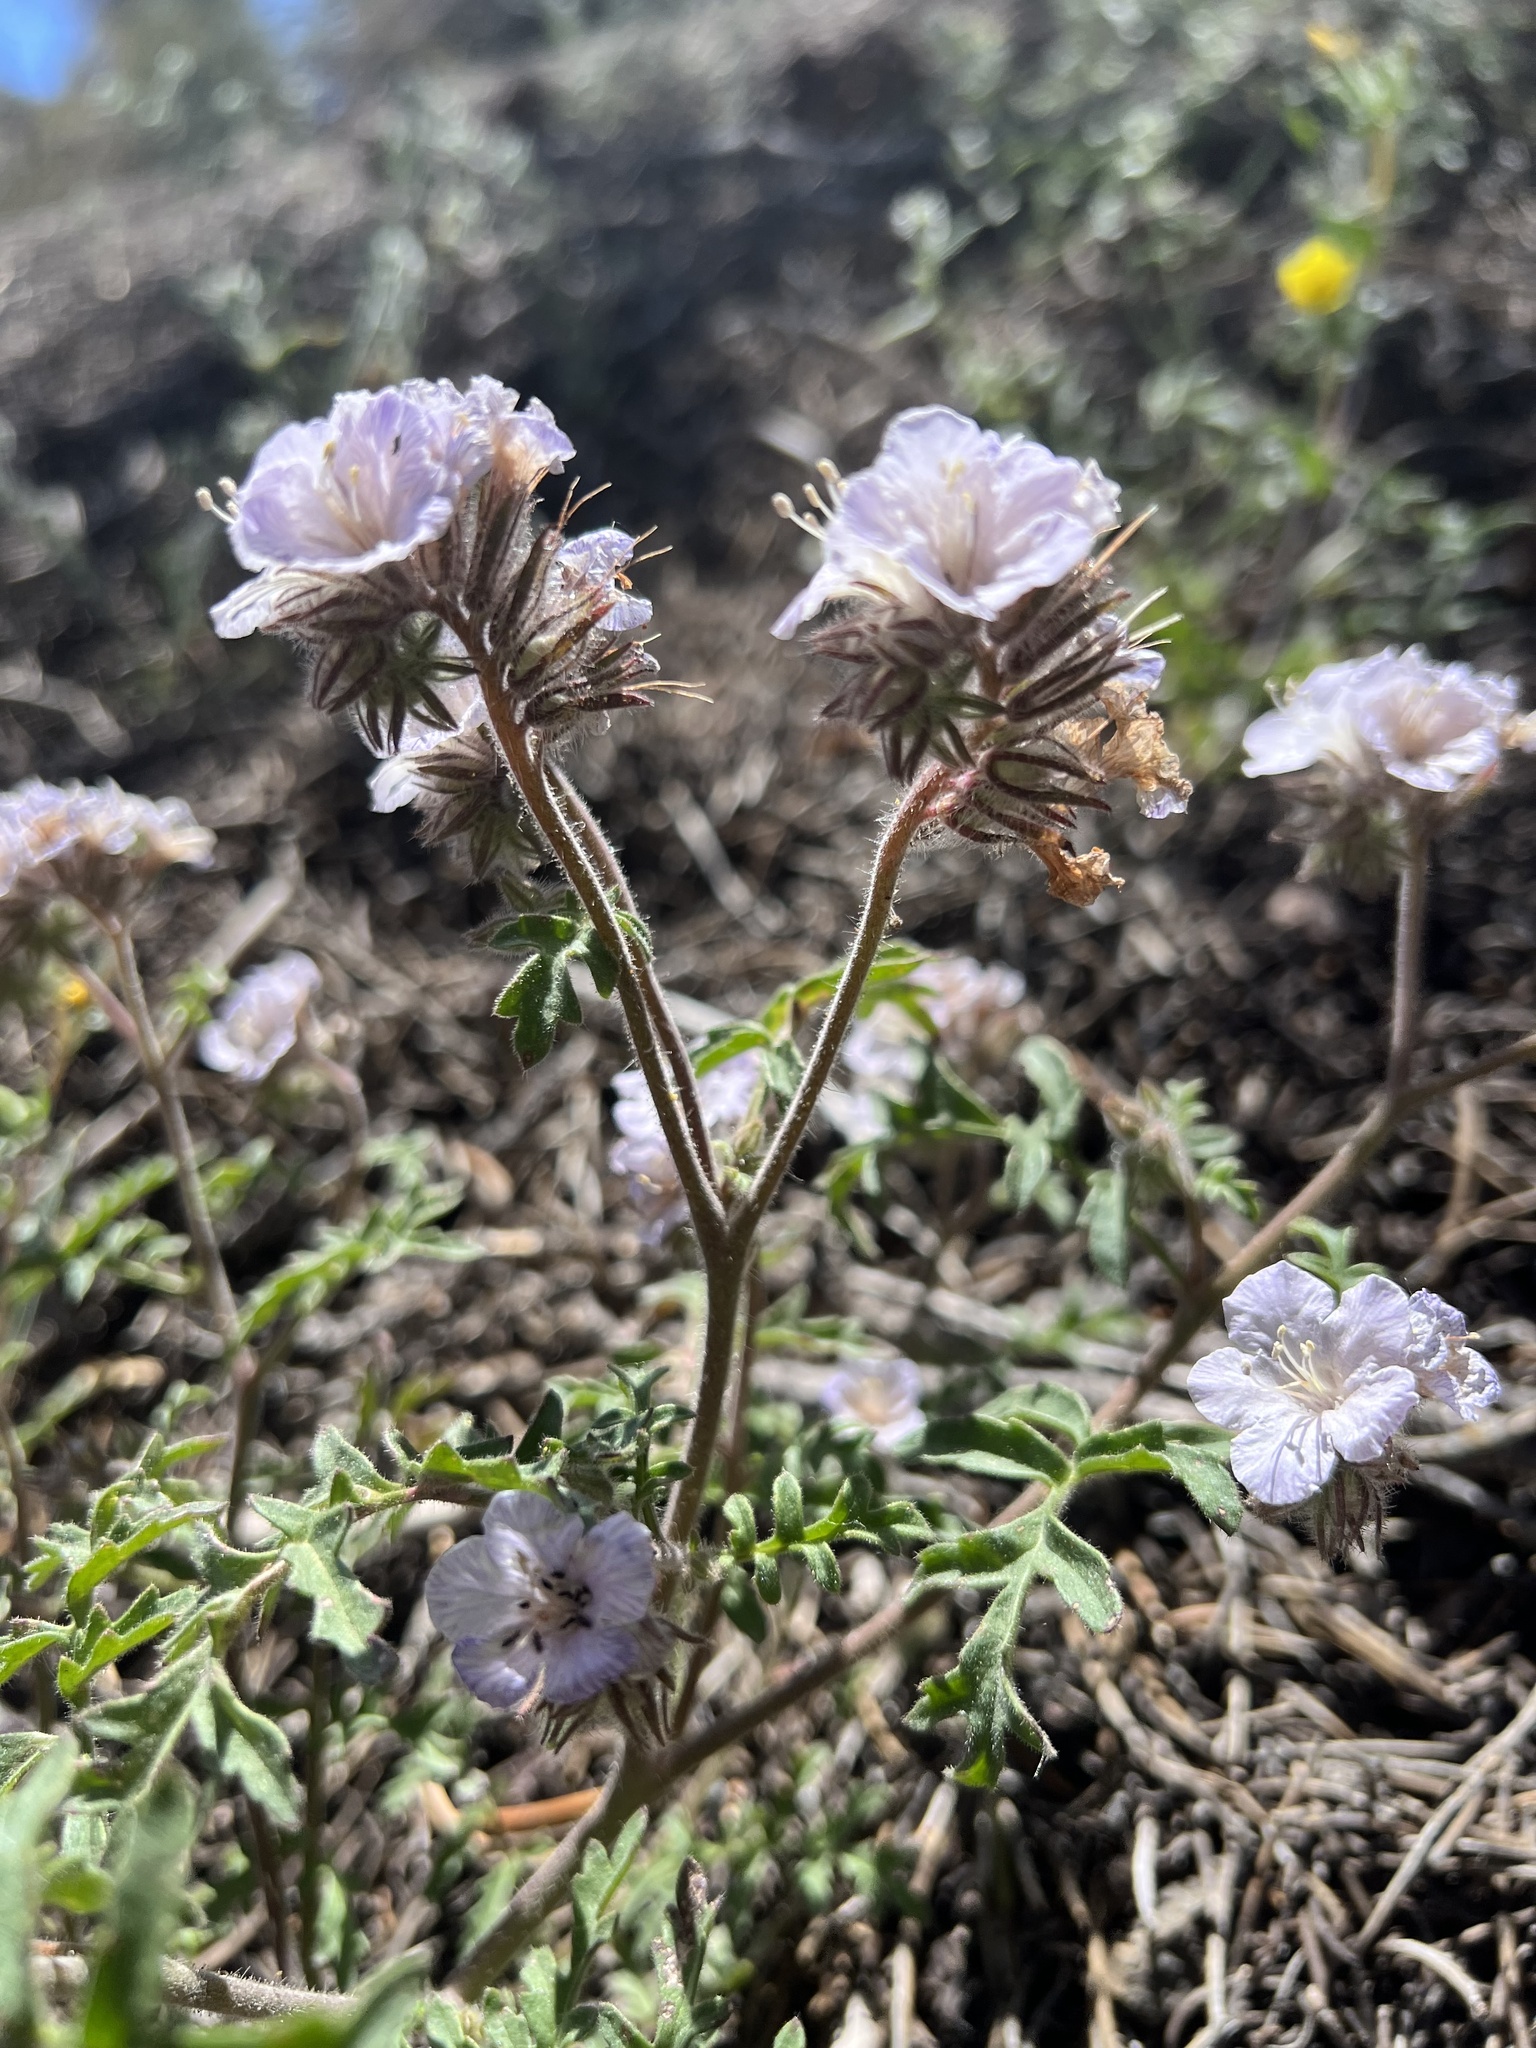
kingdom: Plantae
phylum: Tracheophyta
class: Magnoliopsida
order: Boraginales
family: Hydrophyllaceae
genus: Phacelia
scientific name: Phacelia vallis-mortae
